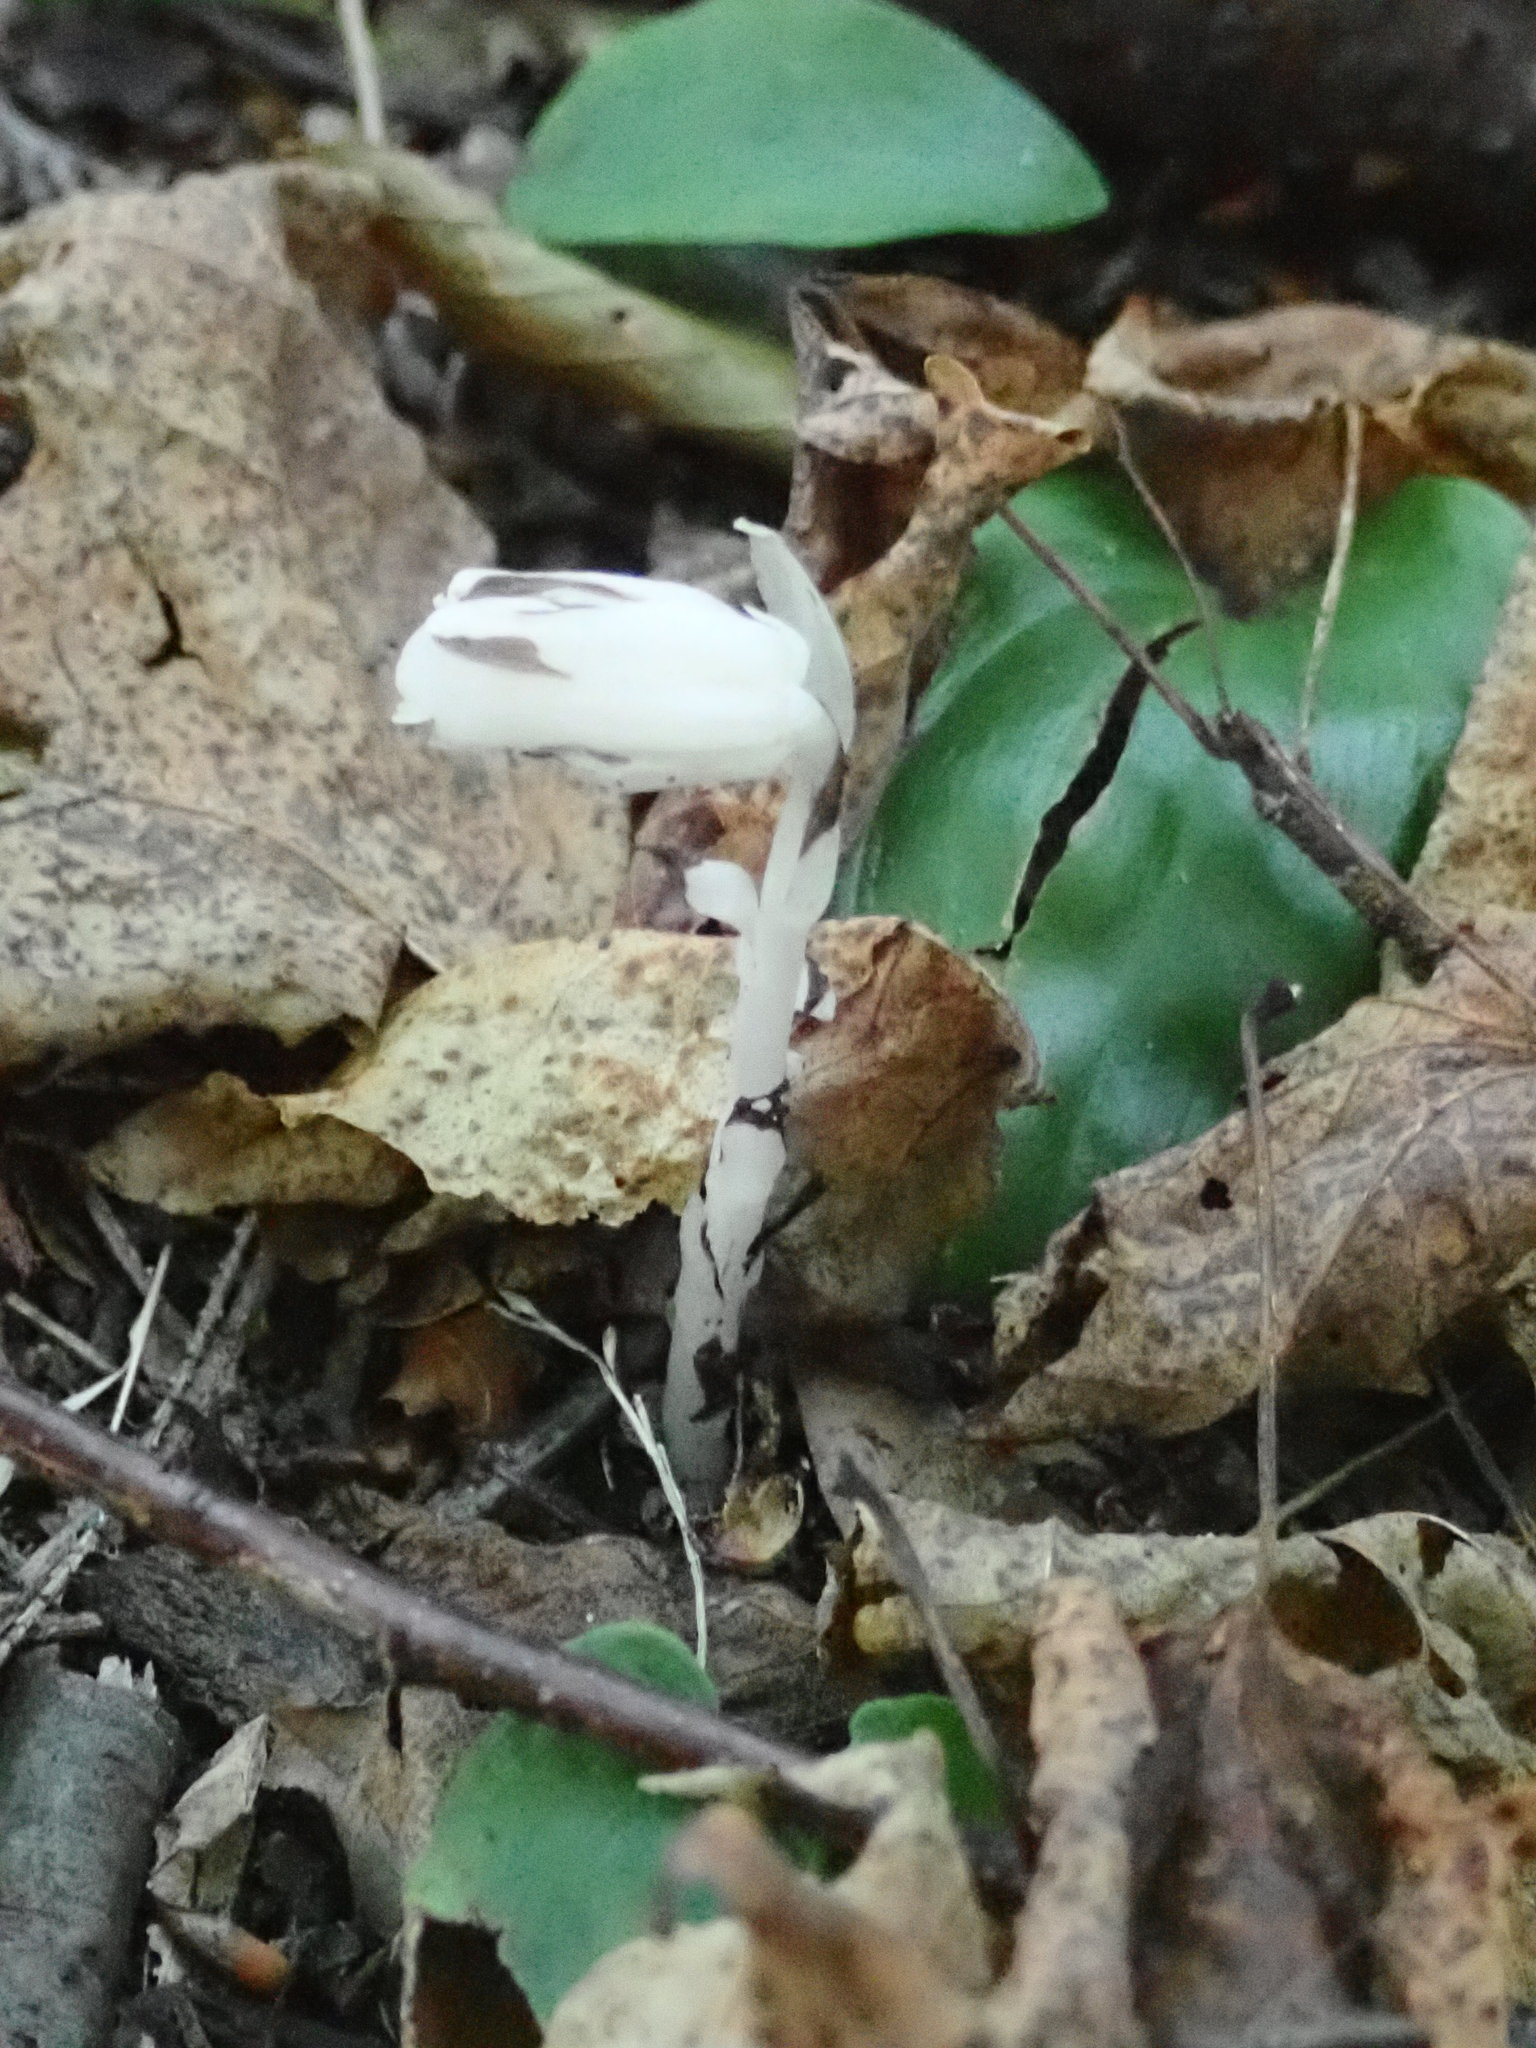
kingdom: Plantae
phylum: Tracheophyta
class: Magnoliopsida
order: Ericales
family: Ericaceae
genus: Monotropa
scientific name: Monotropa uniflora
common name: Convulsion root
